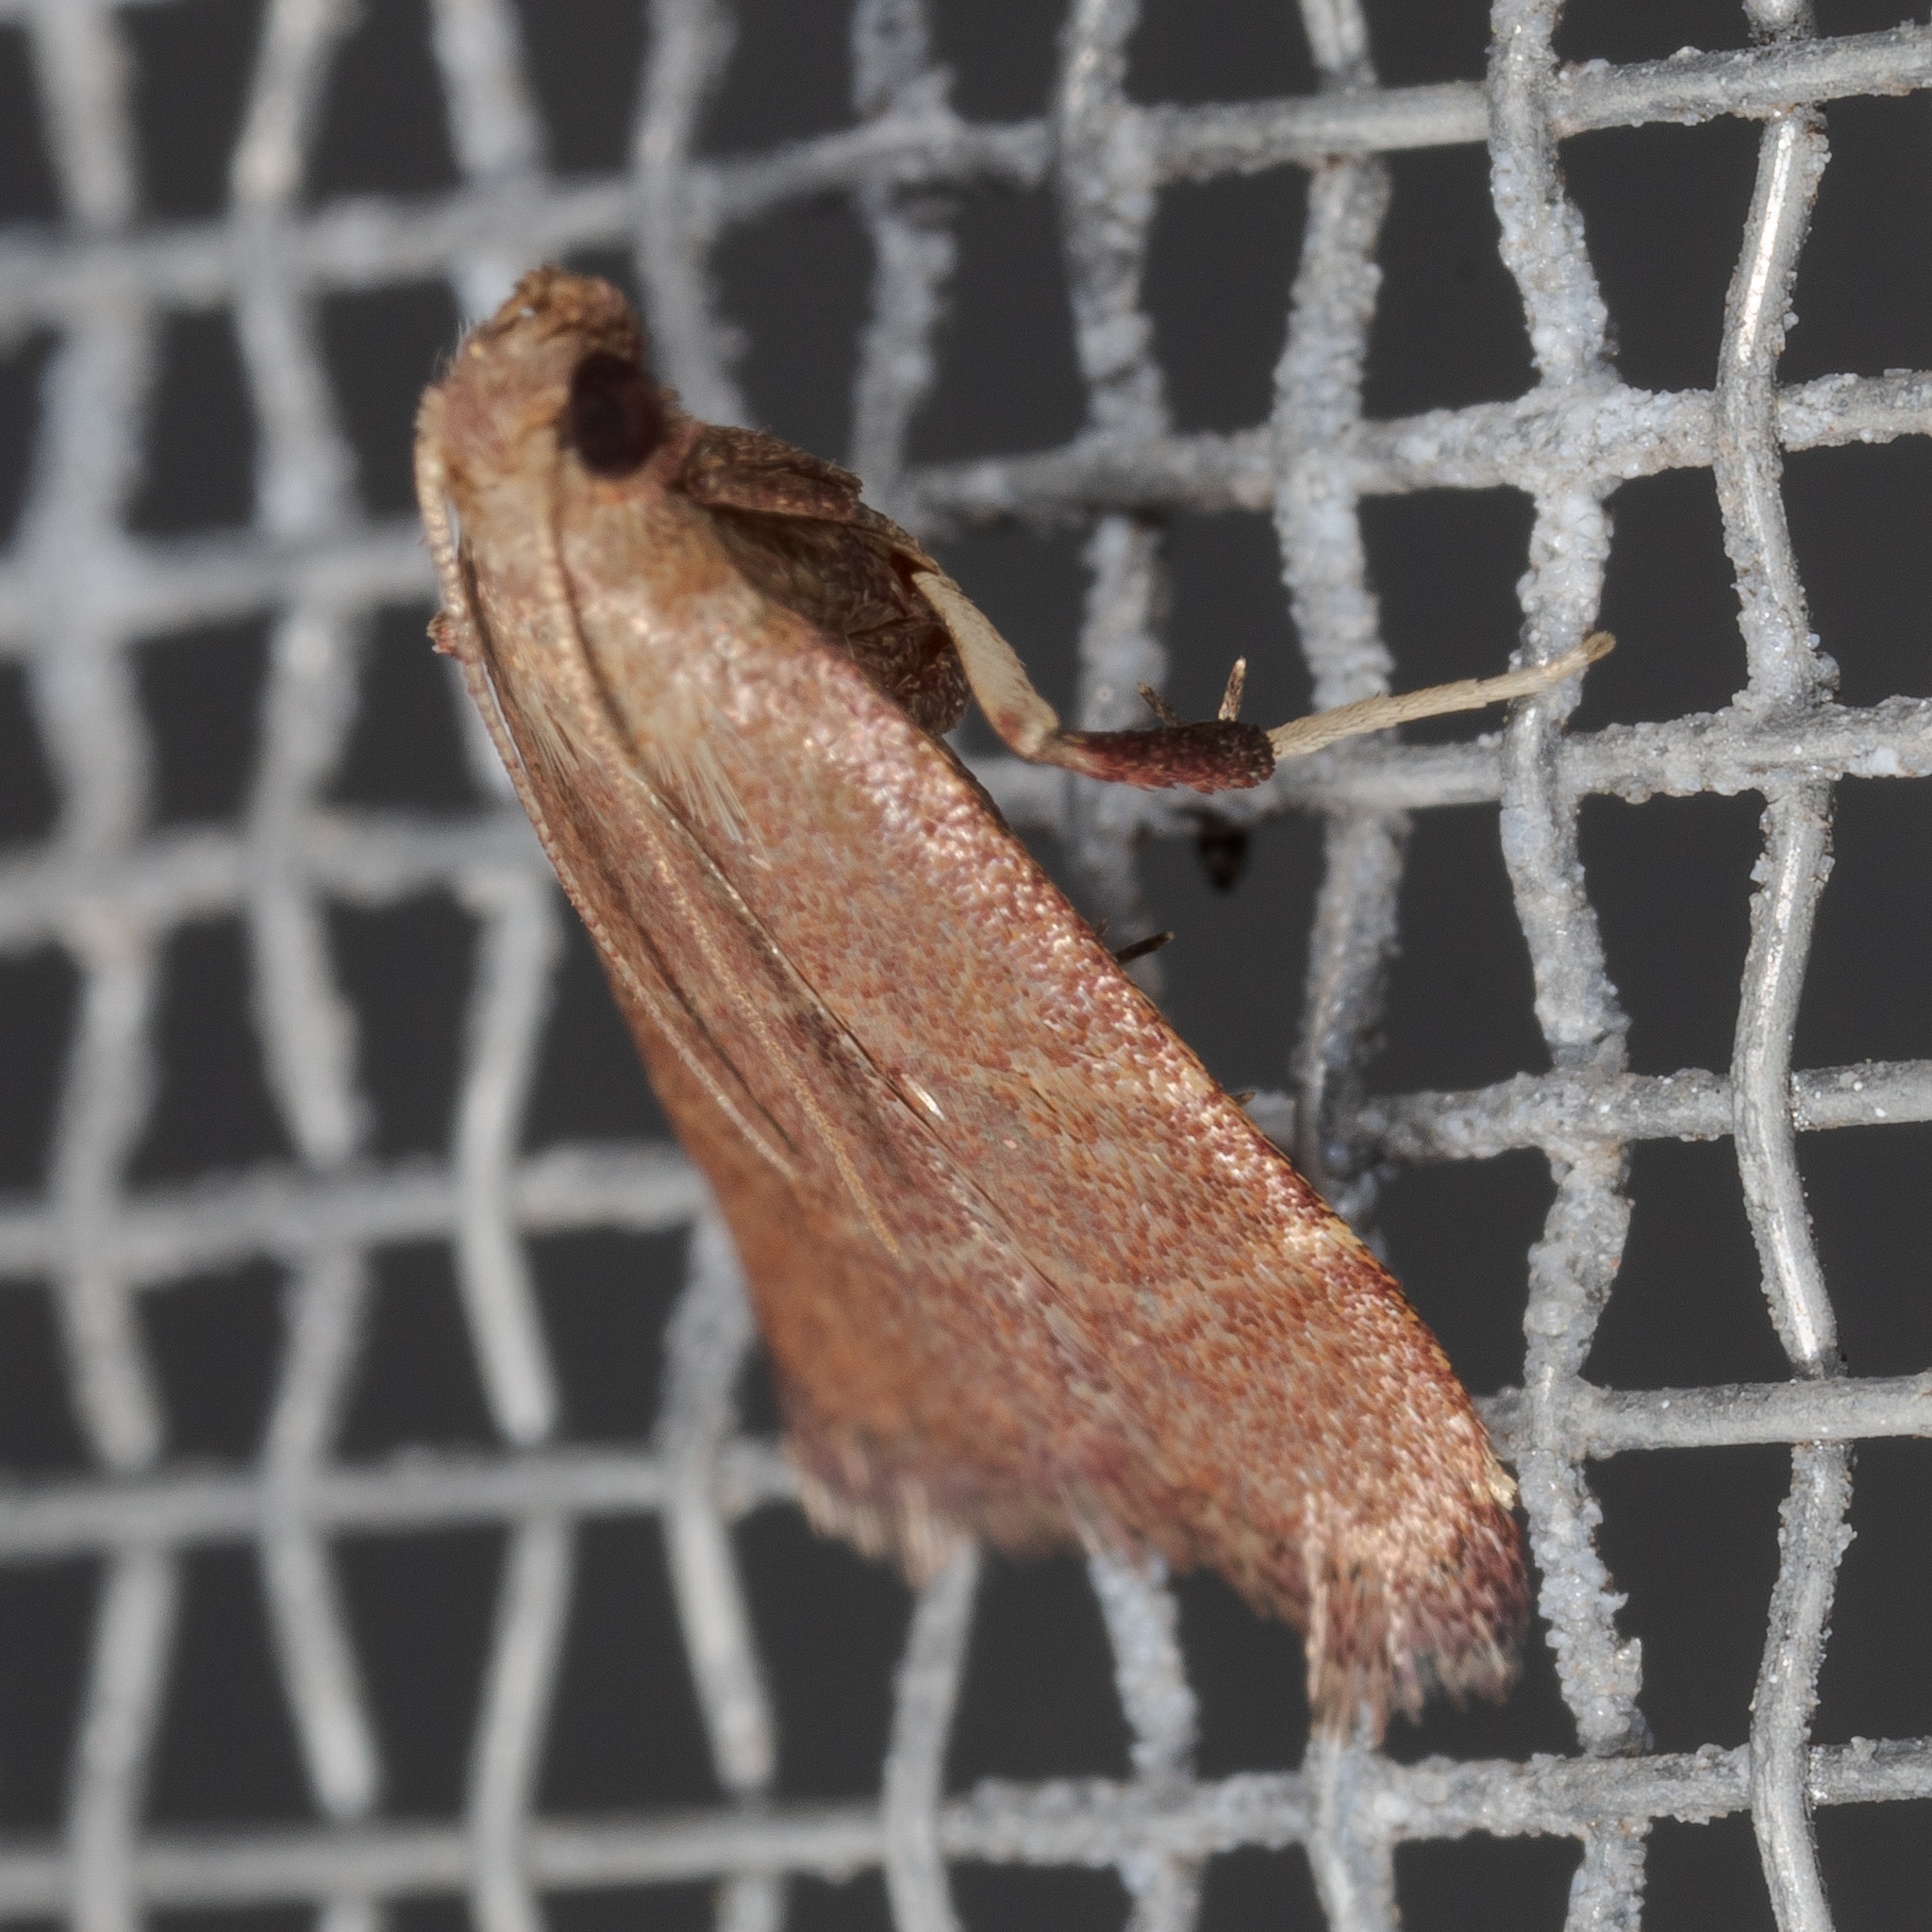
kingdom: Animalia
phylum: Arthropoda
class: Insecta
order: Lepidoptera
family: Pyralidae
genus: Arta
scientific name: Arta epicoenalis
